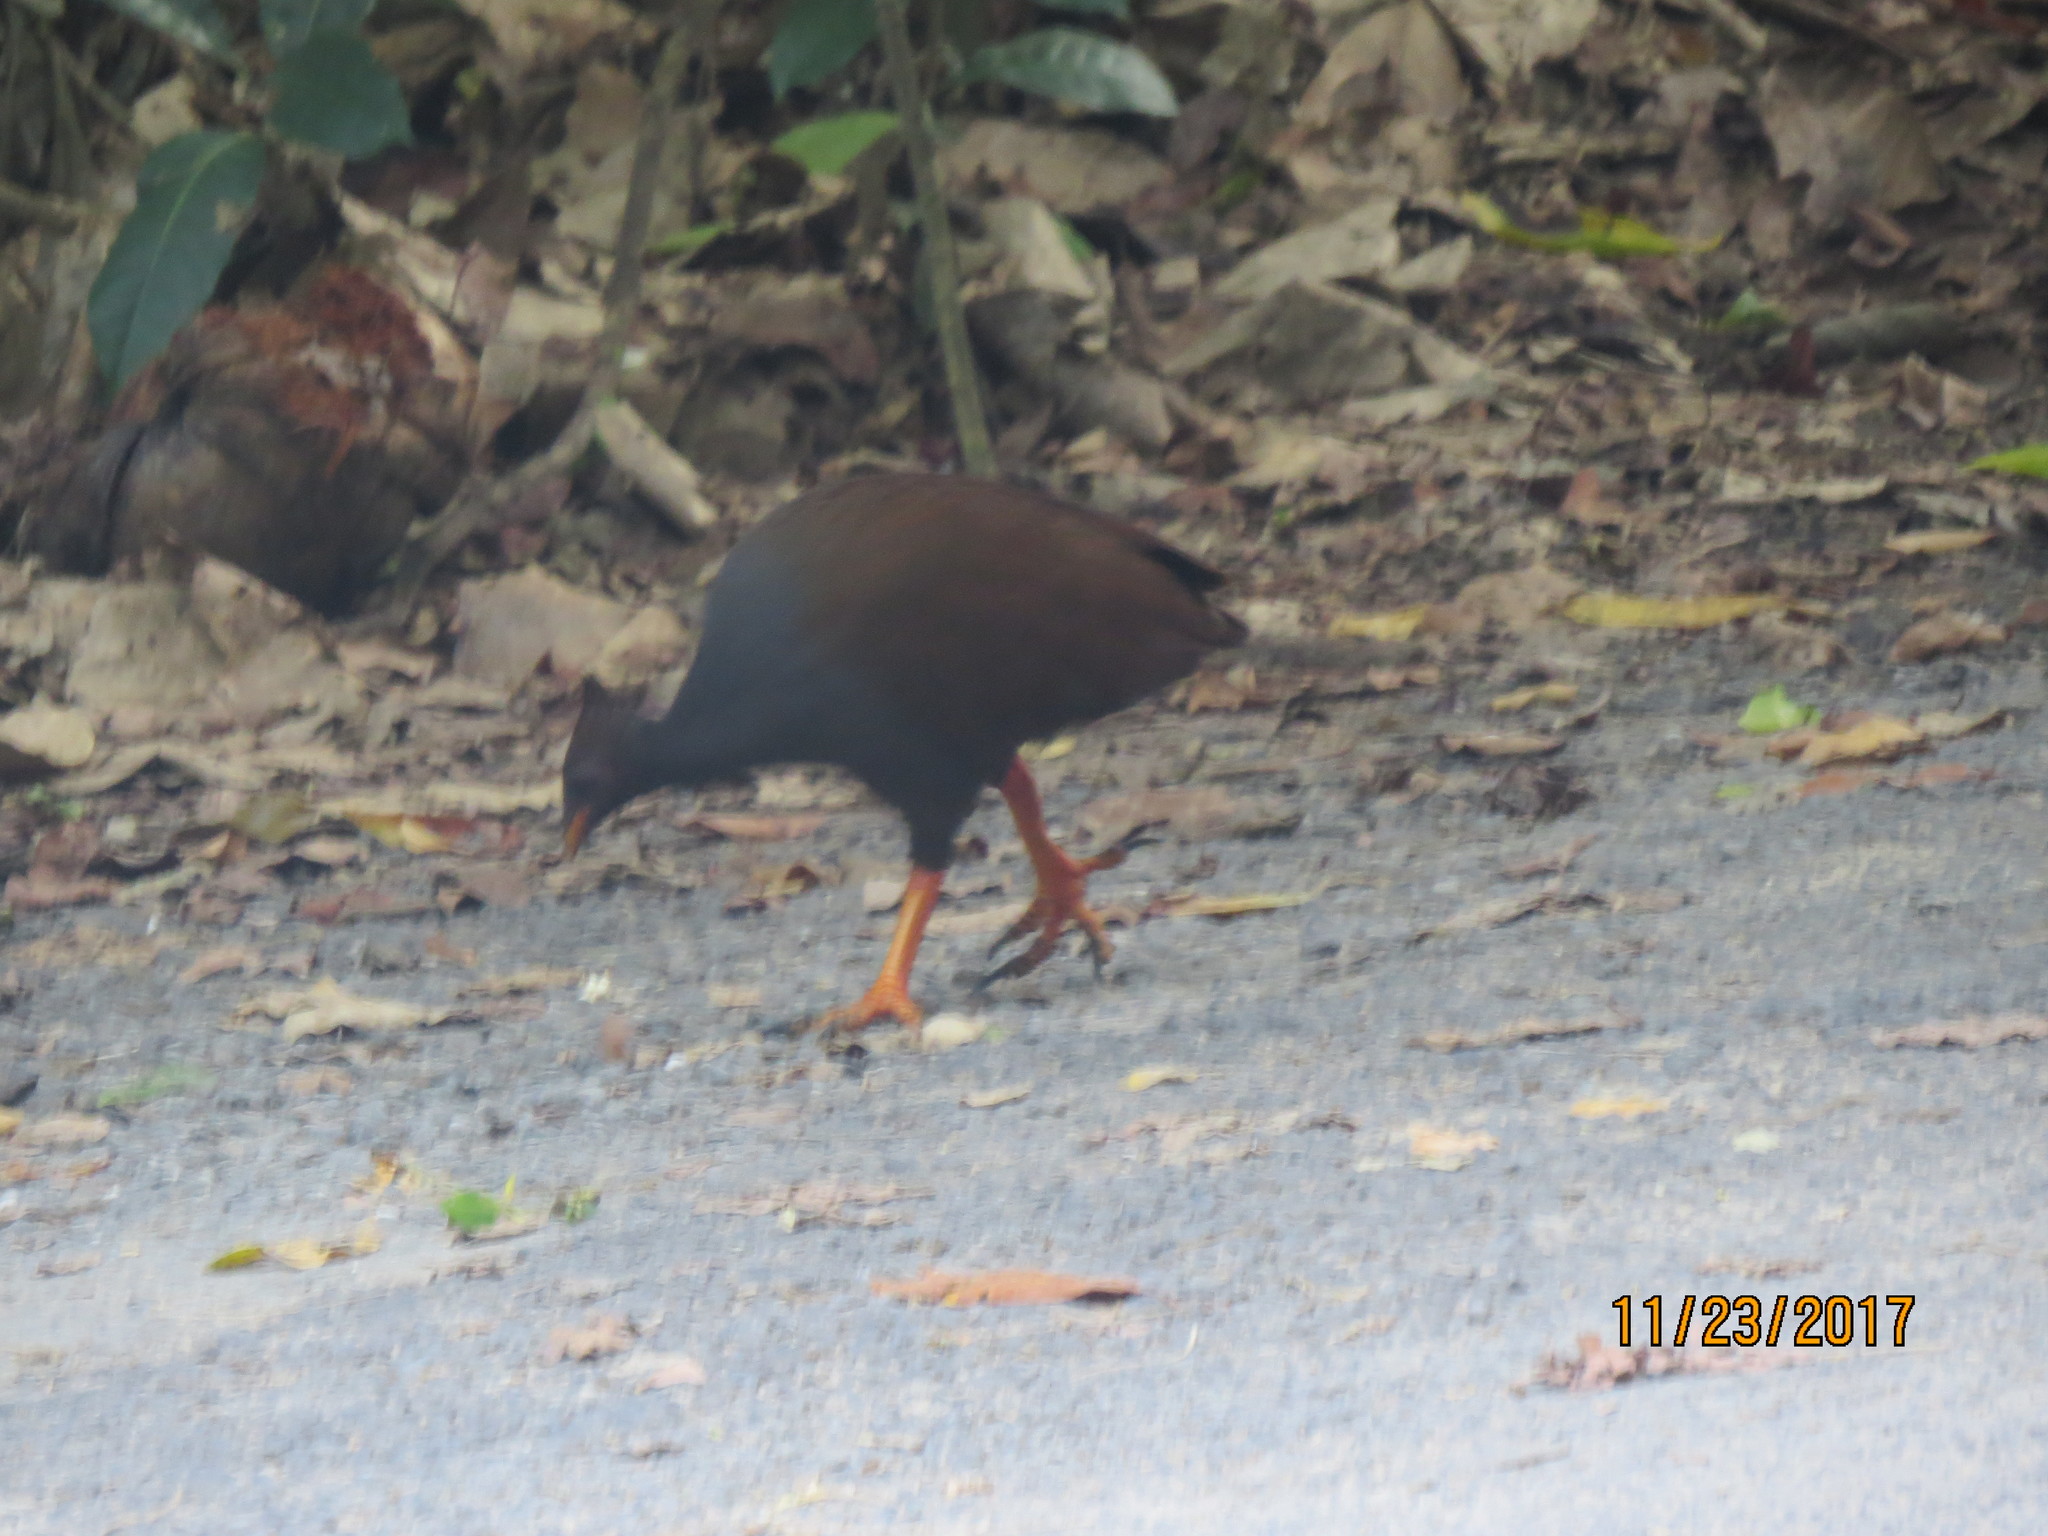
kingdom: Animalia
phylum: Chordata
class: Aves
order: Galliformes
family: Megapodiidae
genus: Megapodius
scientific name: Megapodius reinwardt
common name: Orange-footed scrubfowl
